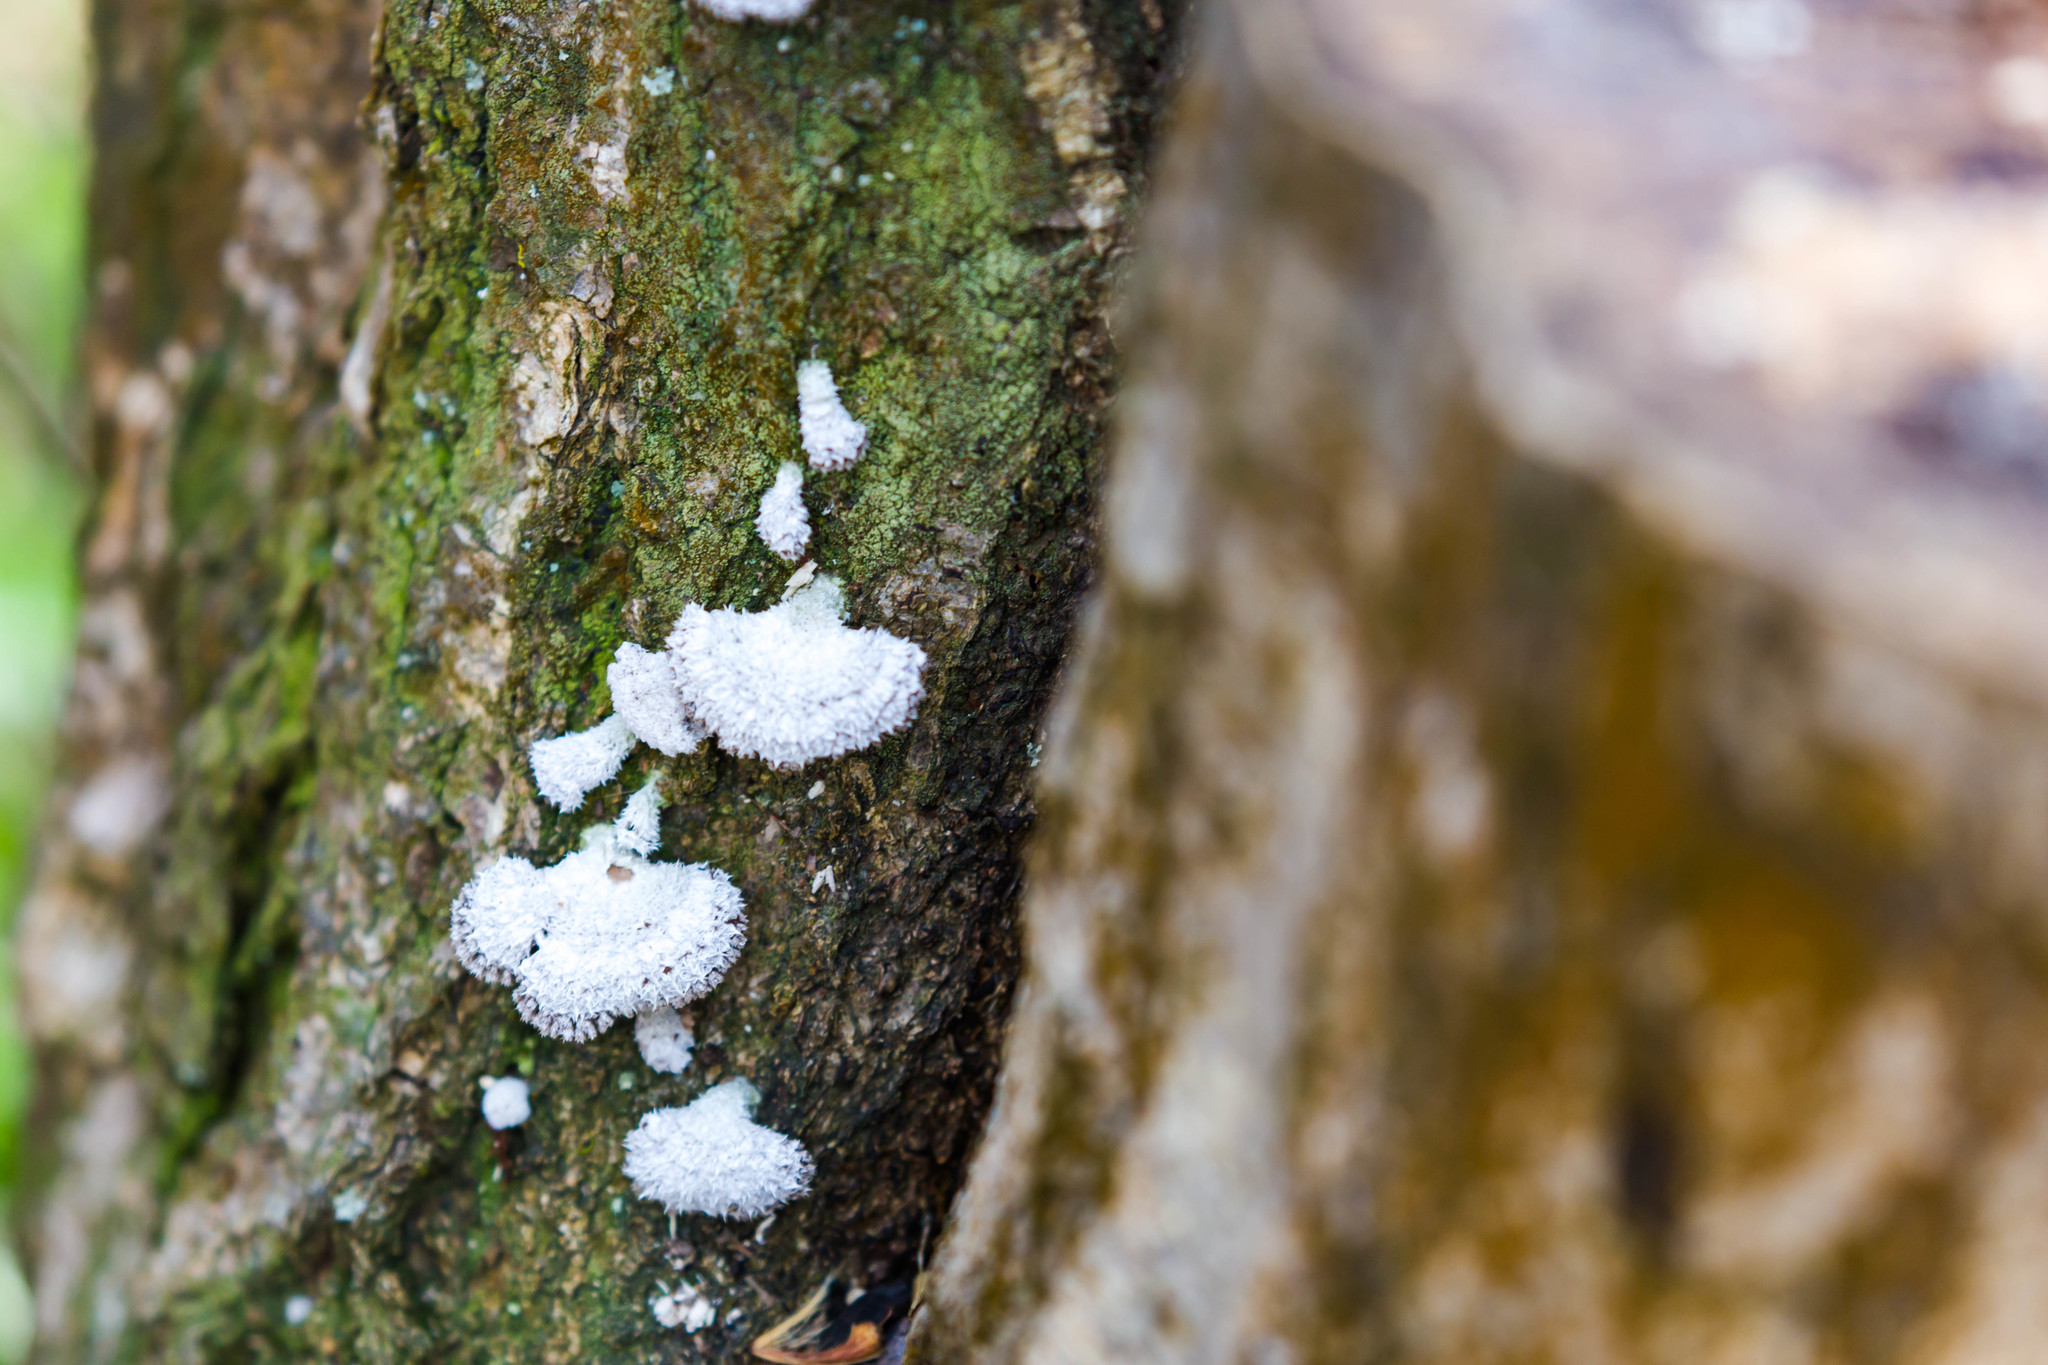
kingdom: Fungi
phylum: Basidiomycota
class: Agaricomycetes
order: Agaricales
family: Schizophyllaceae
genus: Schizophyllum
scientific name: Schizophyllum commune
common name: Common porecrust
